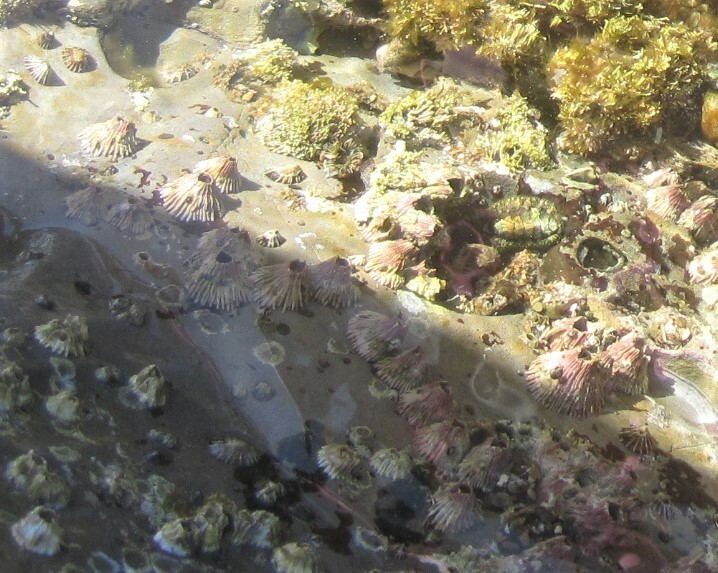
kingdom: Animalia
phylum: Arthropoda
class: Maxillopoda
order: Sessilia
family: Tetraclitidae
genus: Tetraclita
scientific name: Tetraclita rubescens
